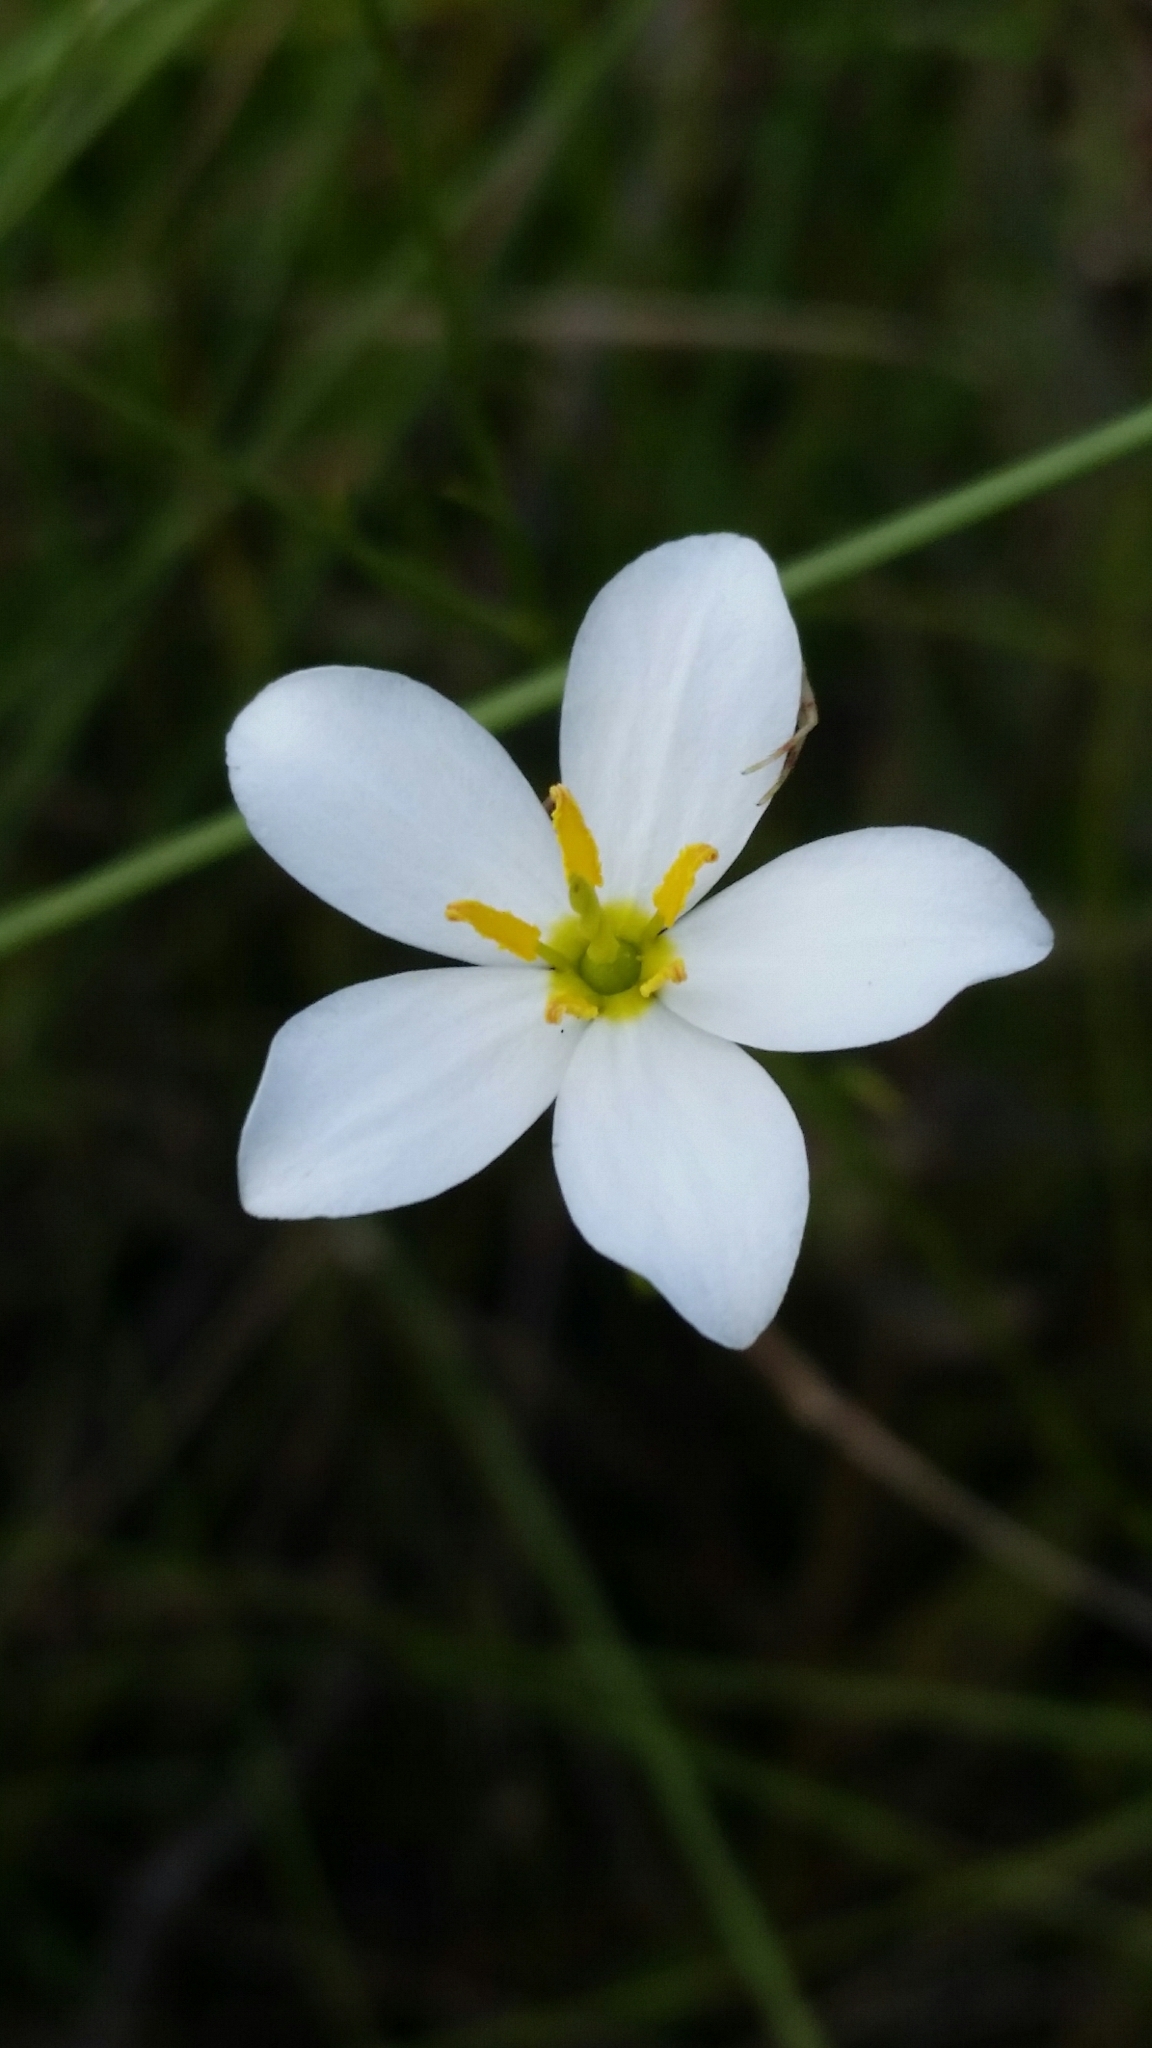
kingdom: Plantae
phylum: Tracheophyta
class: Magnoliopsida
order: Gentianales
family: Gentianaceae
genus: Sabatia
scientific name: Sabatia brevifolia
